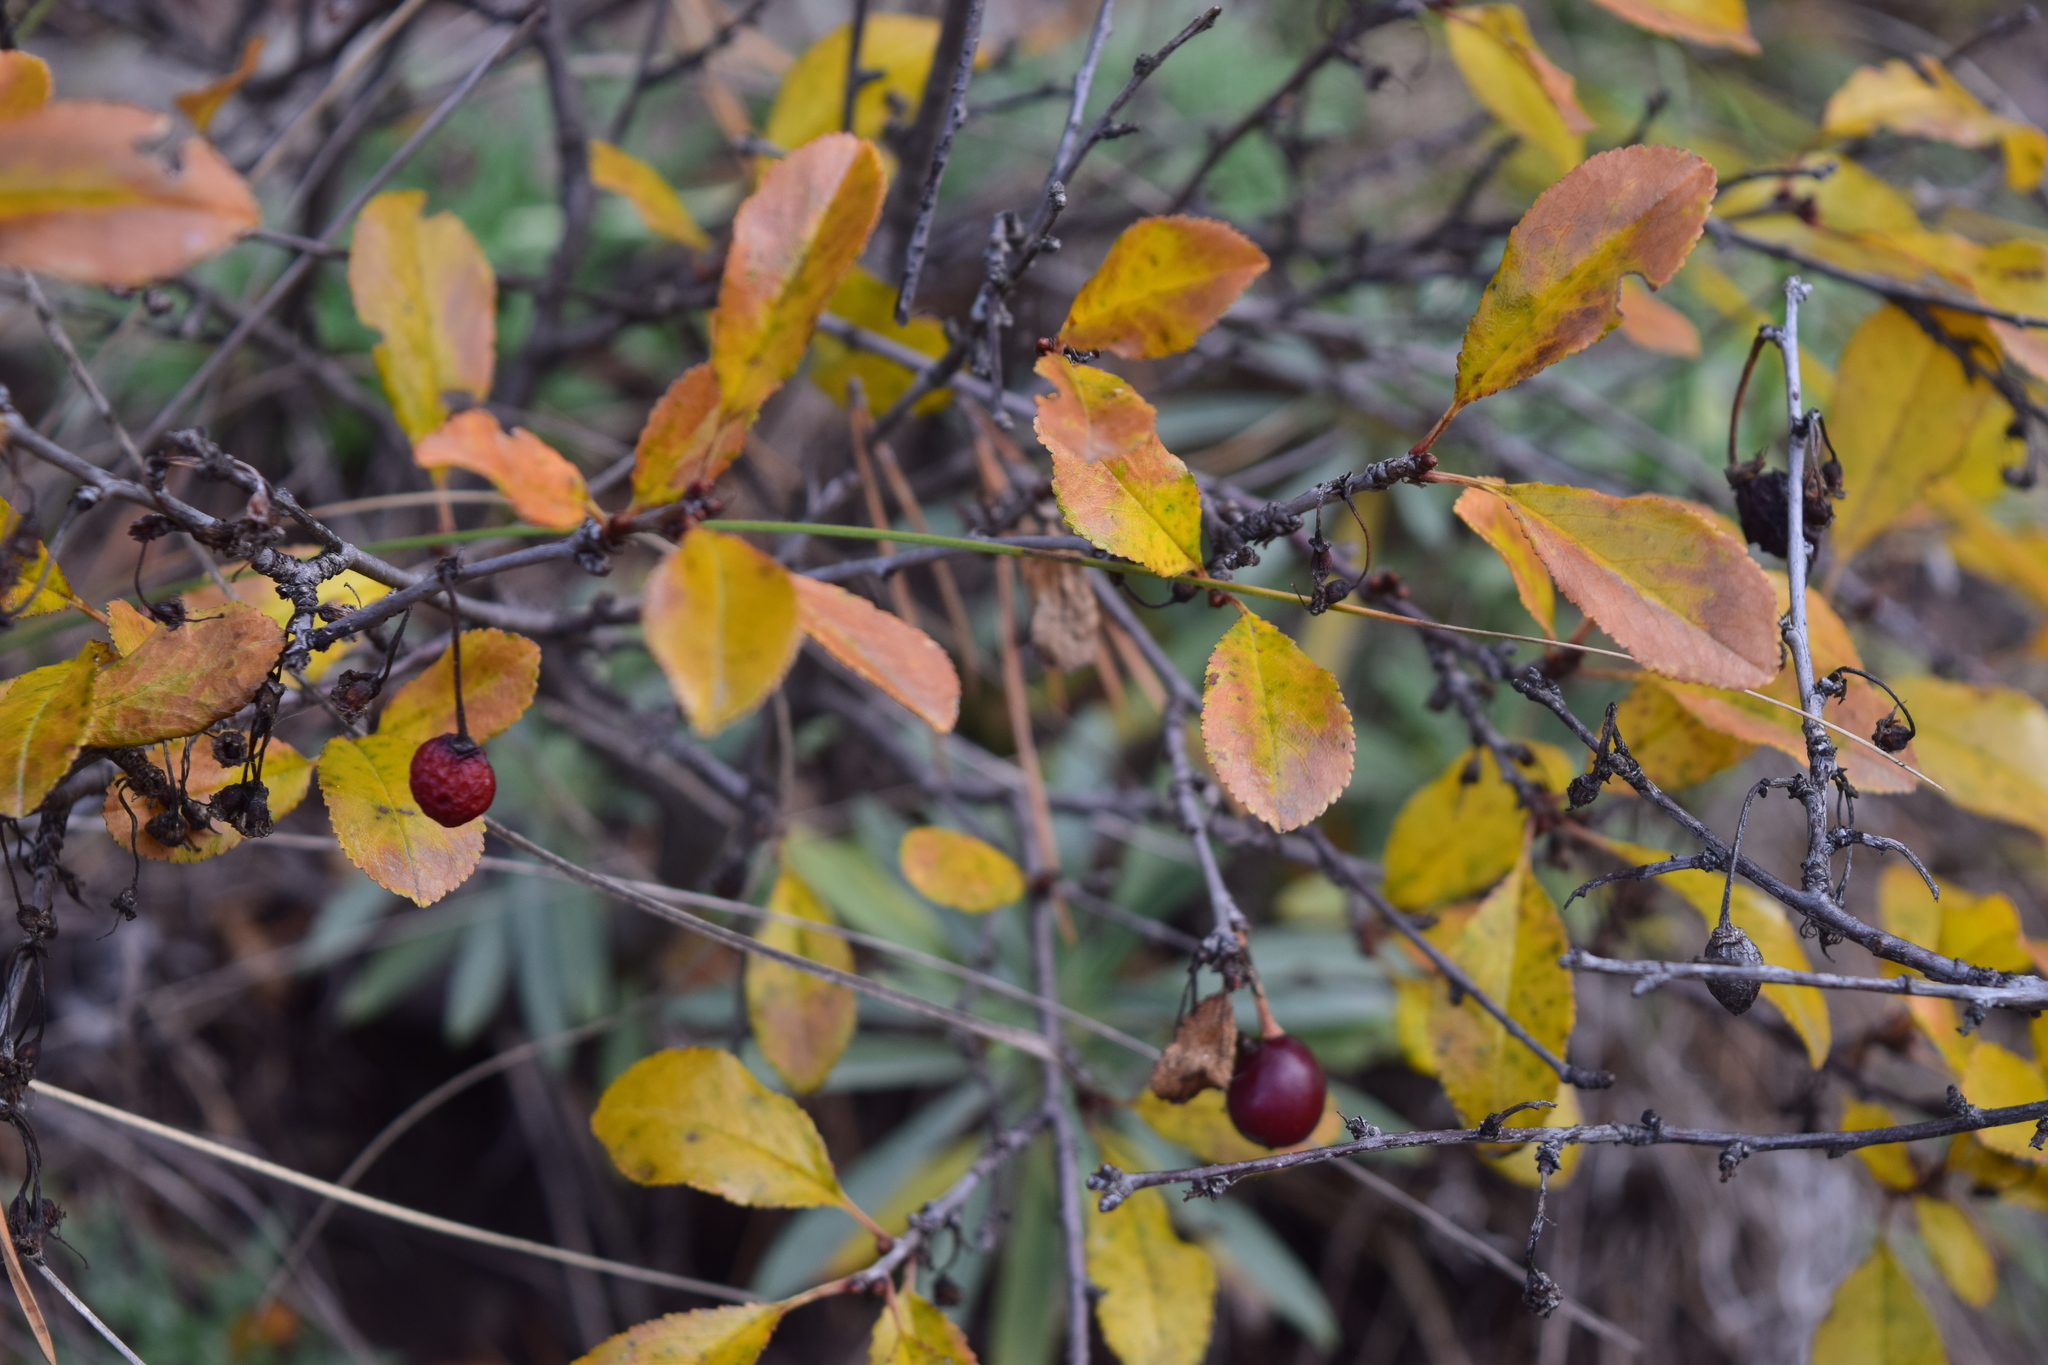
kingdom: Plantae
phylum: Tracheophyta
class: Magnoliopsida
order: Rosales
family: Rosaceae
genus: Prunus
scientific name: Prunus fruticosa
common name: European dwarf cherry
